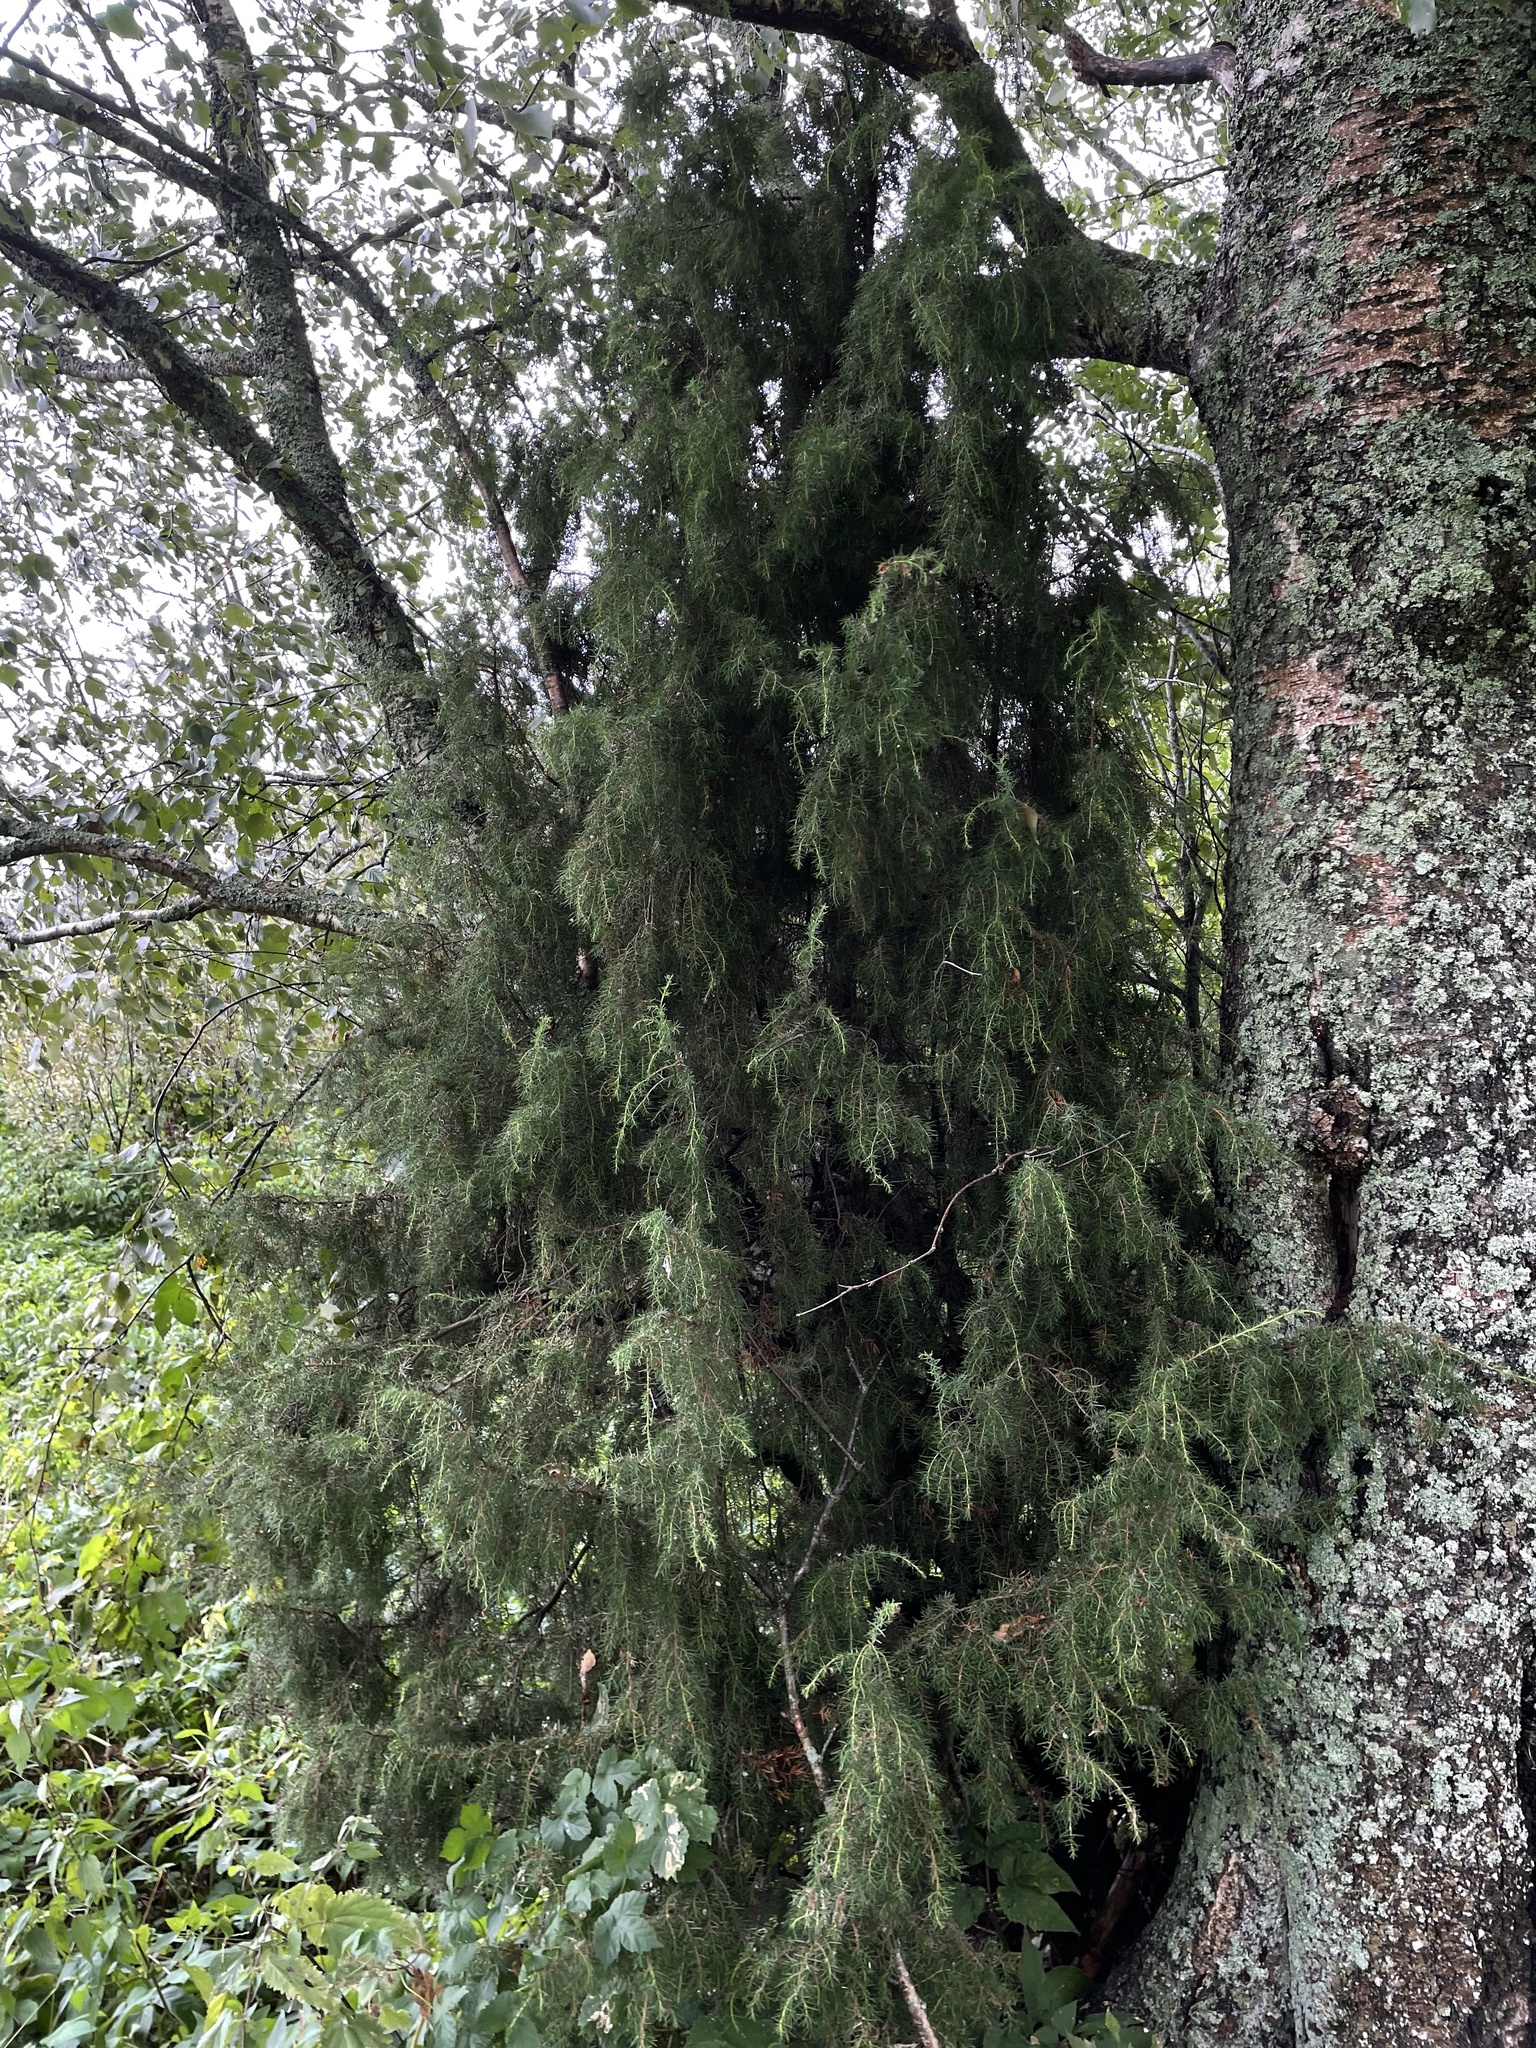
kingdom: Plantae
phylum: Tracheophyta
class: Pinopsida
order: Pinales
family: Cupressaceae
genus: Juniperus
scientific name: Juniperus communis
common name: Common juniper
